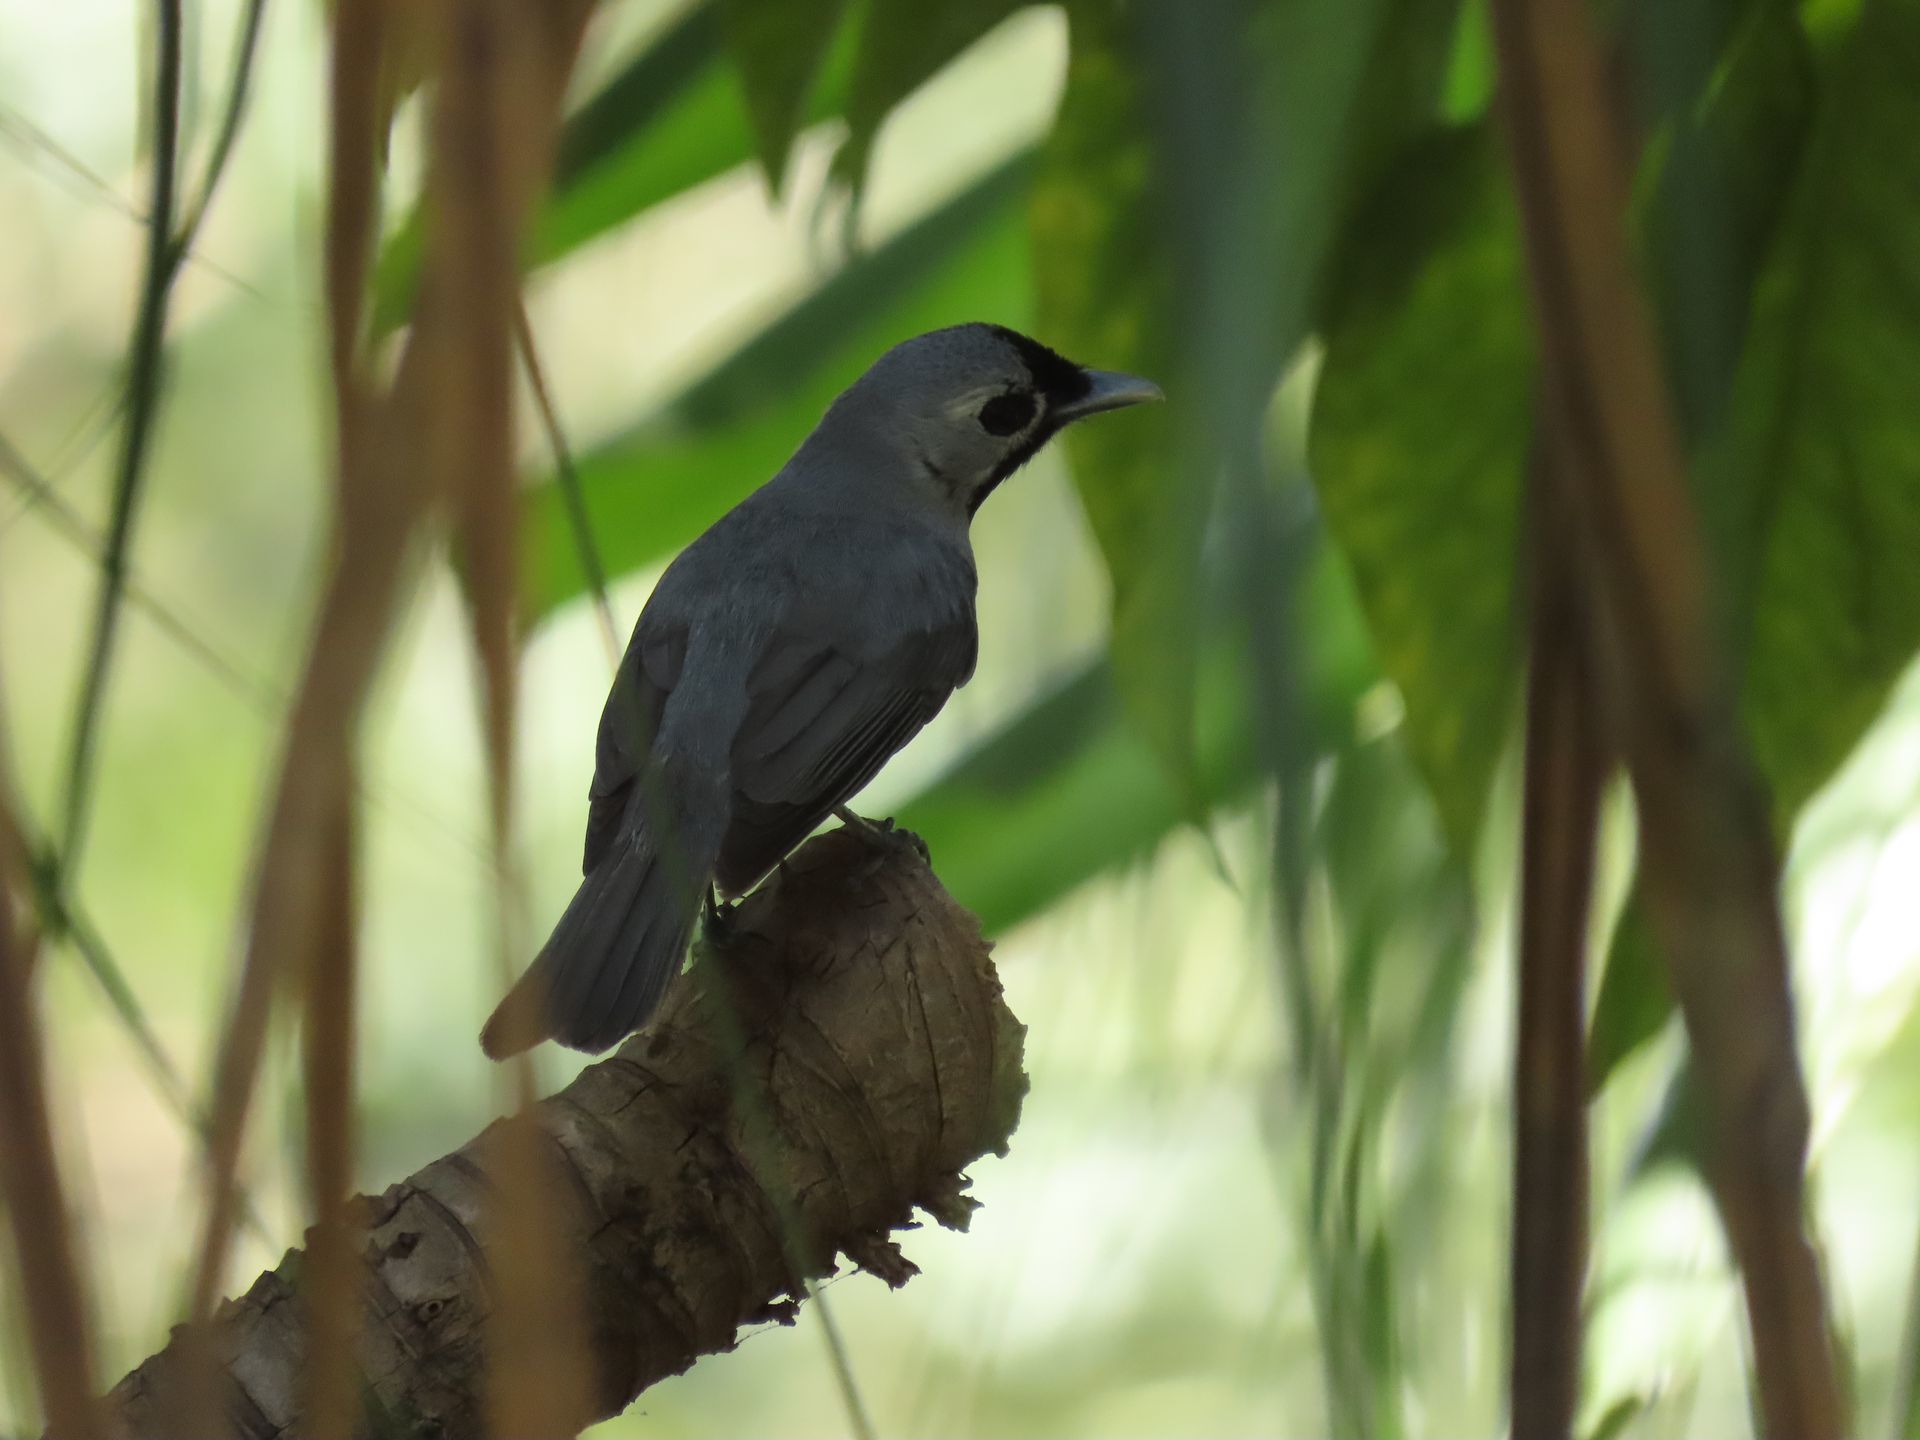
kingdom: Animalia
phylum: Chordata
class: Aves
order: Passeriformes
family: Monarchidae
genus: Monarcha
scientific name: Monarcha melanopsis
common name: Black-faced monarch
